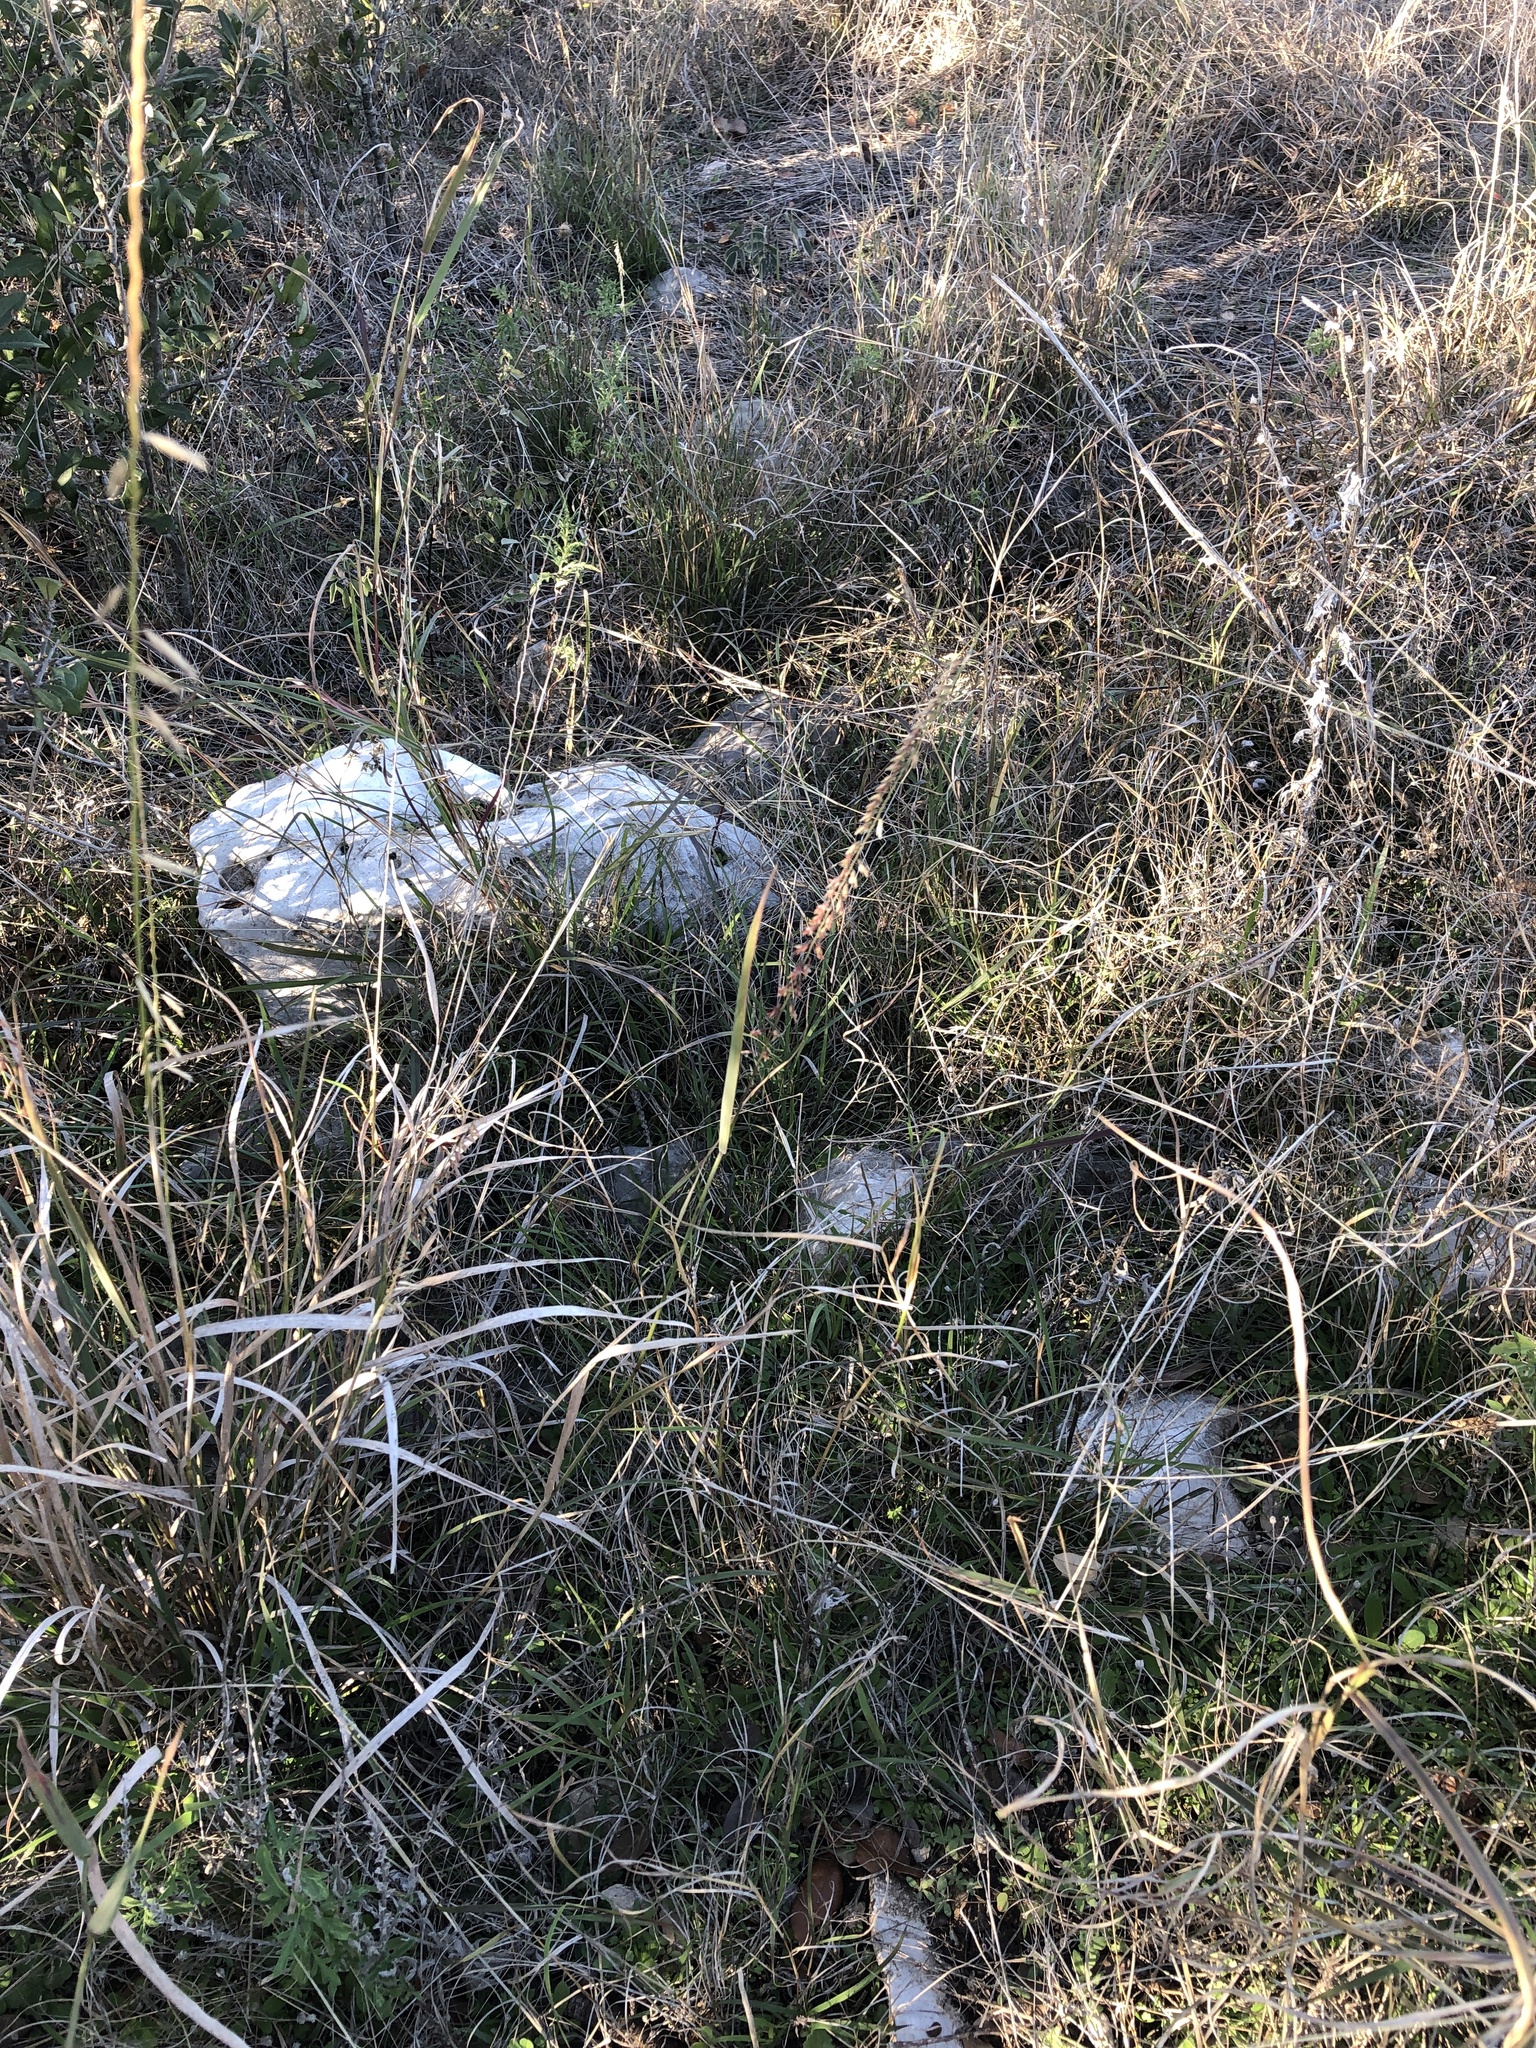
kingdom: Plantae
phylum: Tracheophyta
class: Liliopsida
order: Poales
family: Poaceae
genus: Bouteloua
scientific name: Bouteloua curtipendula
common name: Side-oats grama
